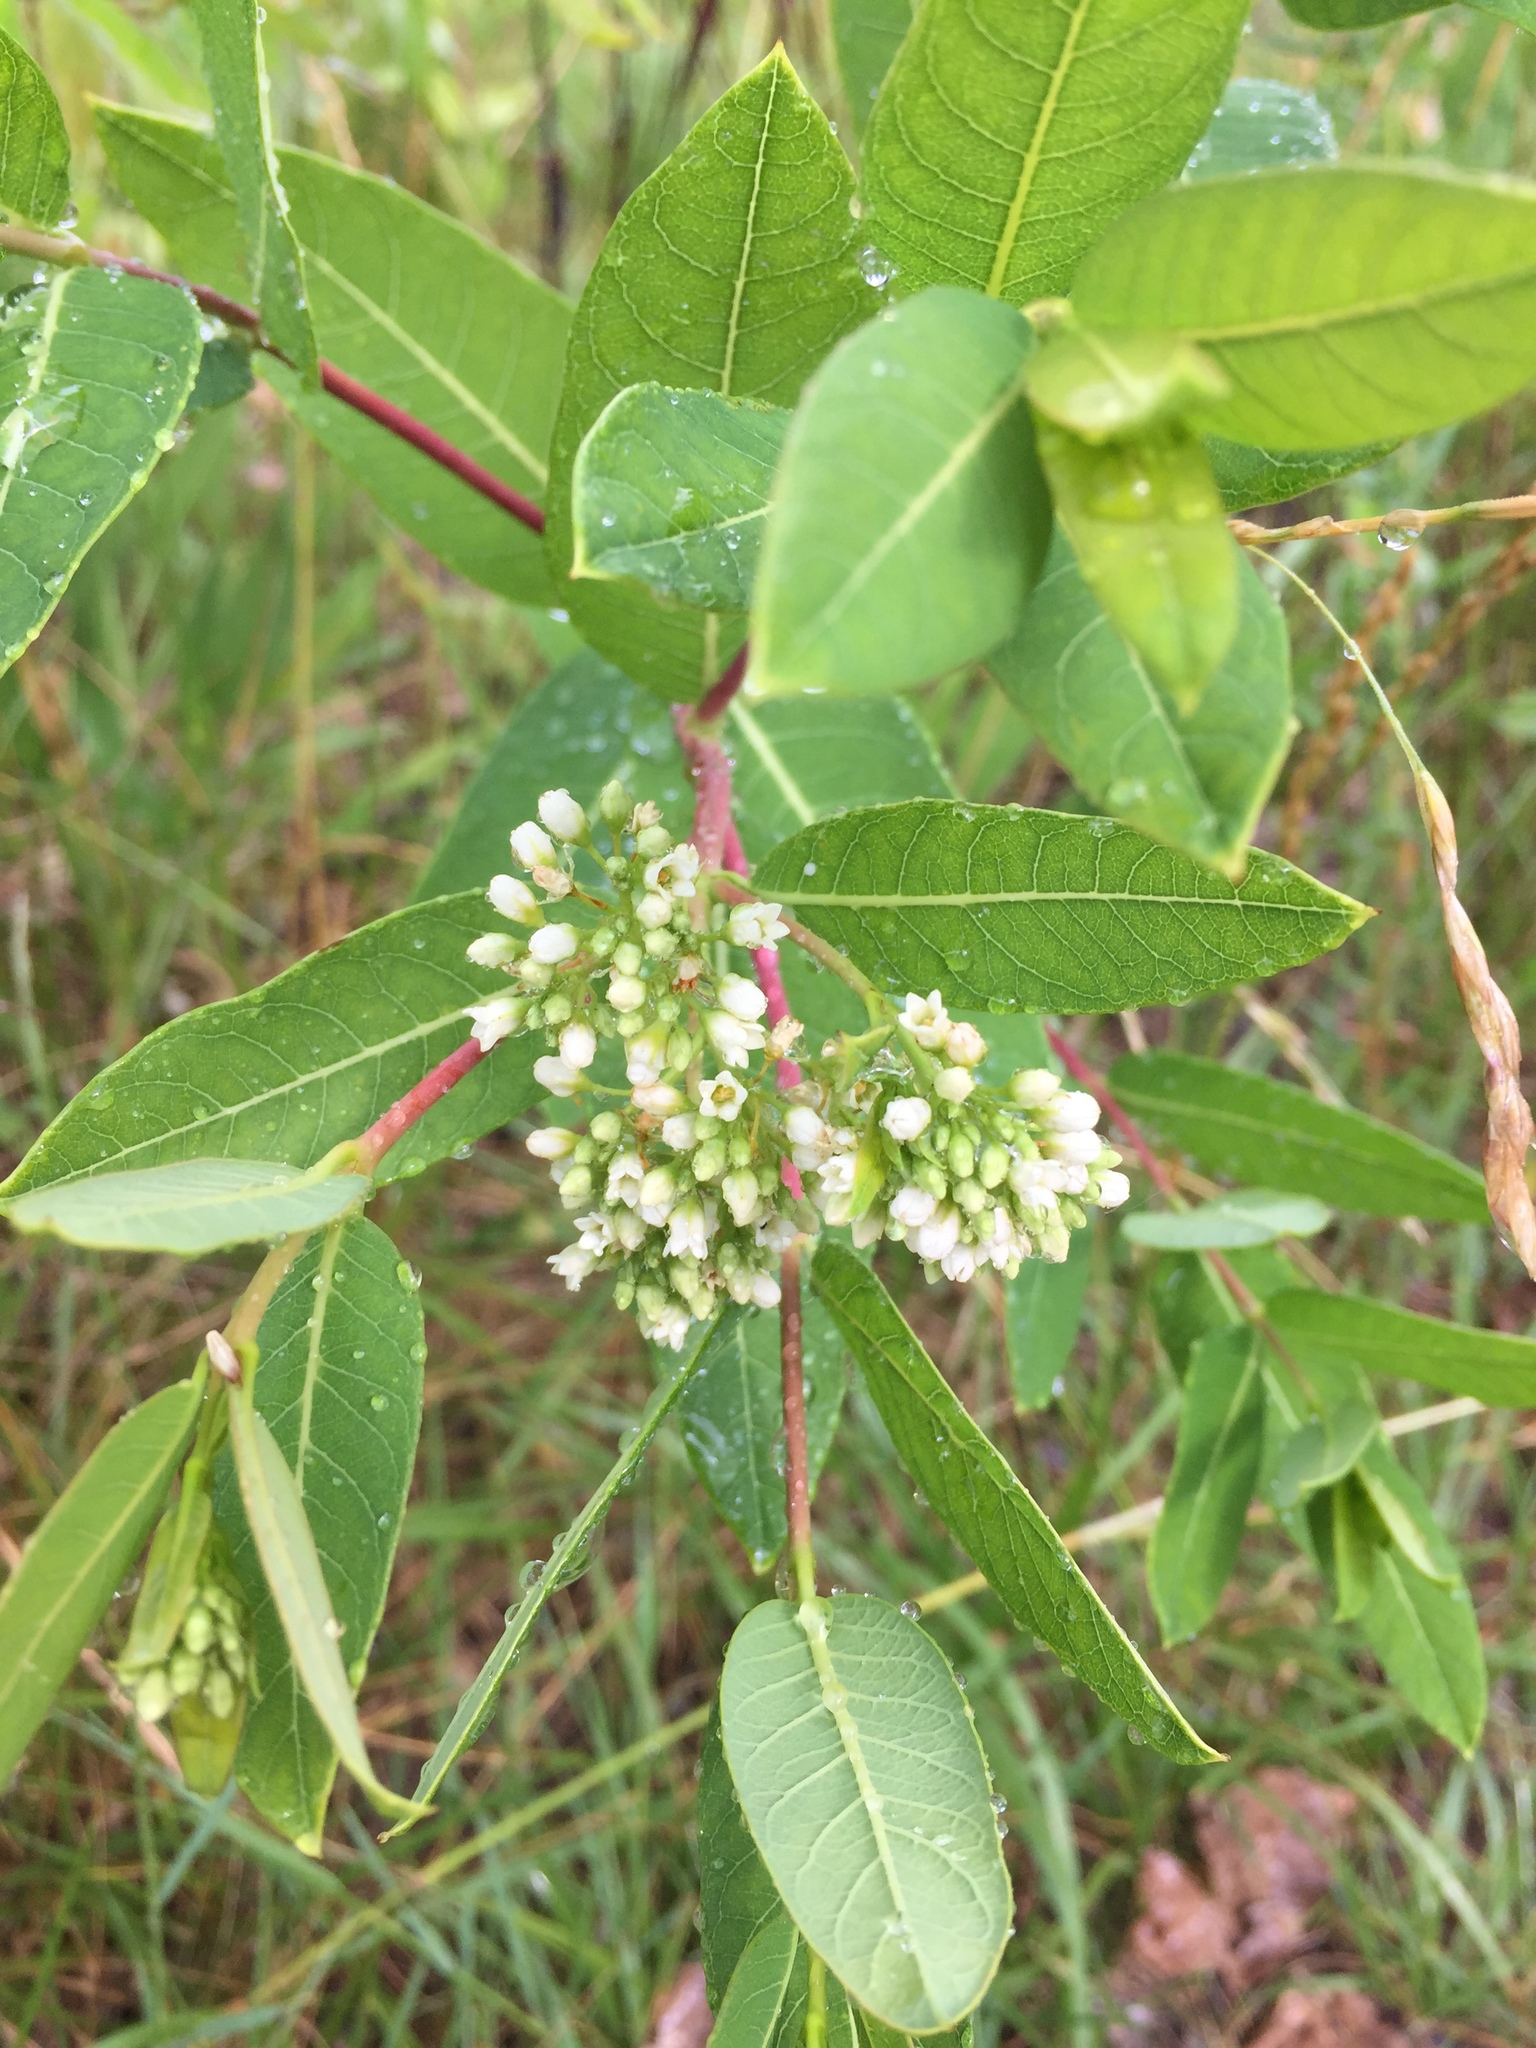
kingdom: Plantae
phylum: Tracheophyta
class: Magnoliopsida
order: Gentianales
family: Apocynaceae
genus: Apocynum
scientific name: Apocynum cannabinum
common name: Hemp dogbane
